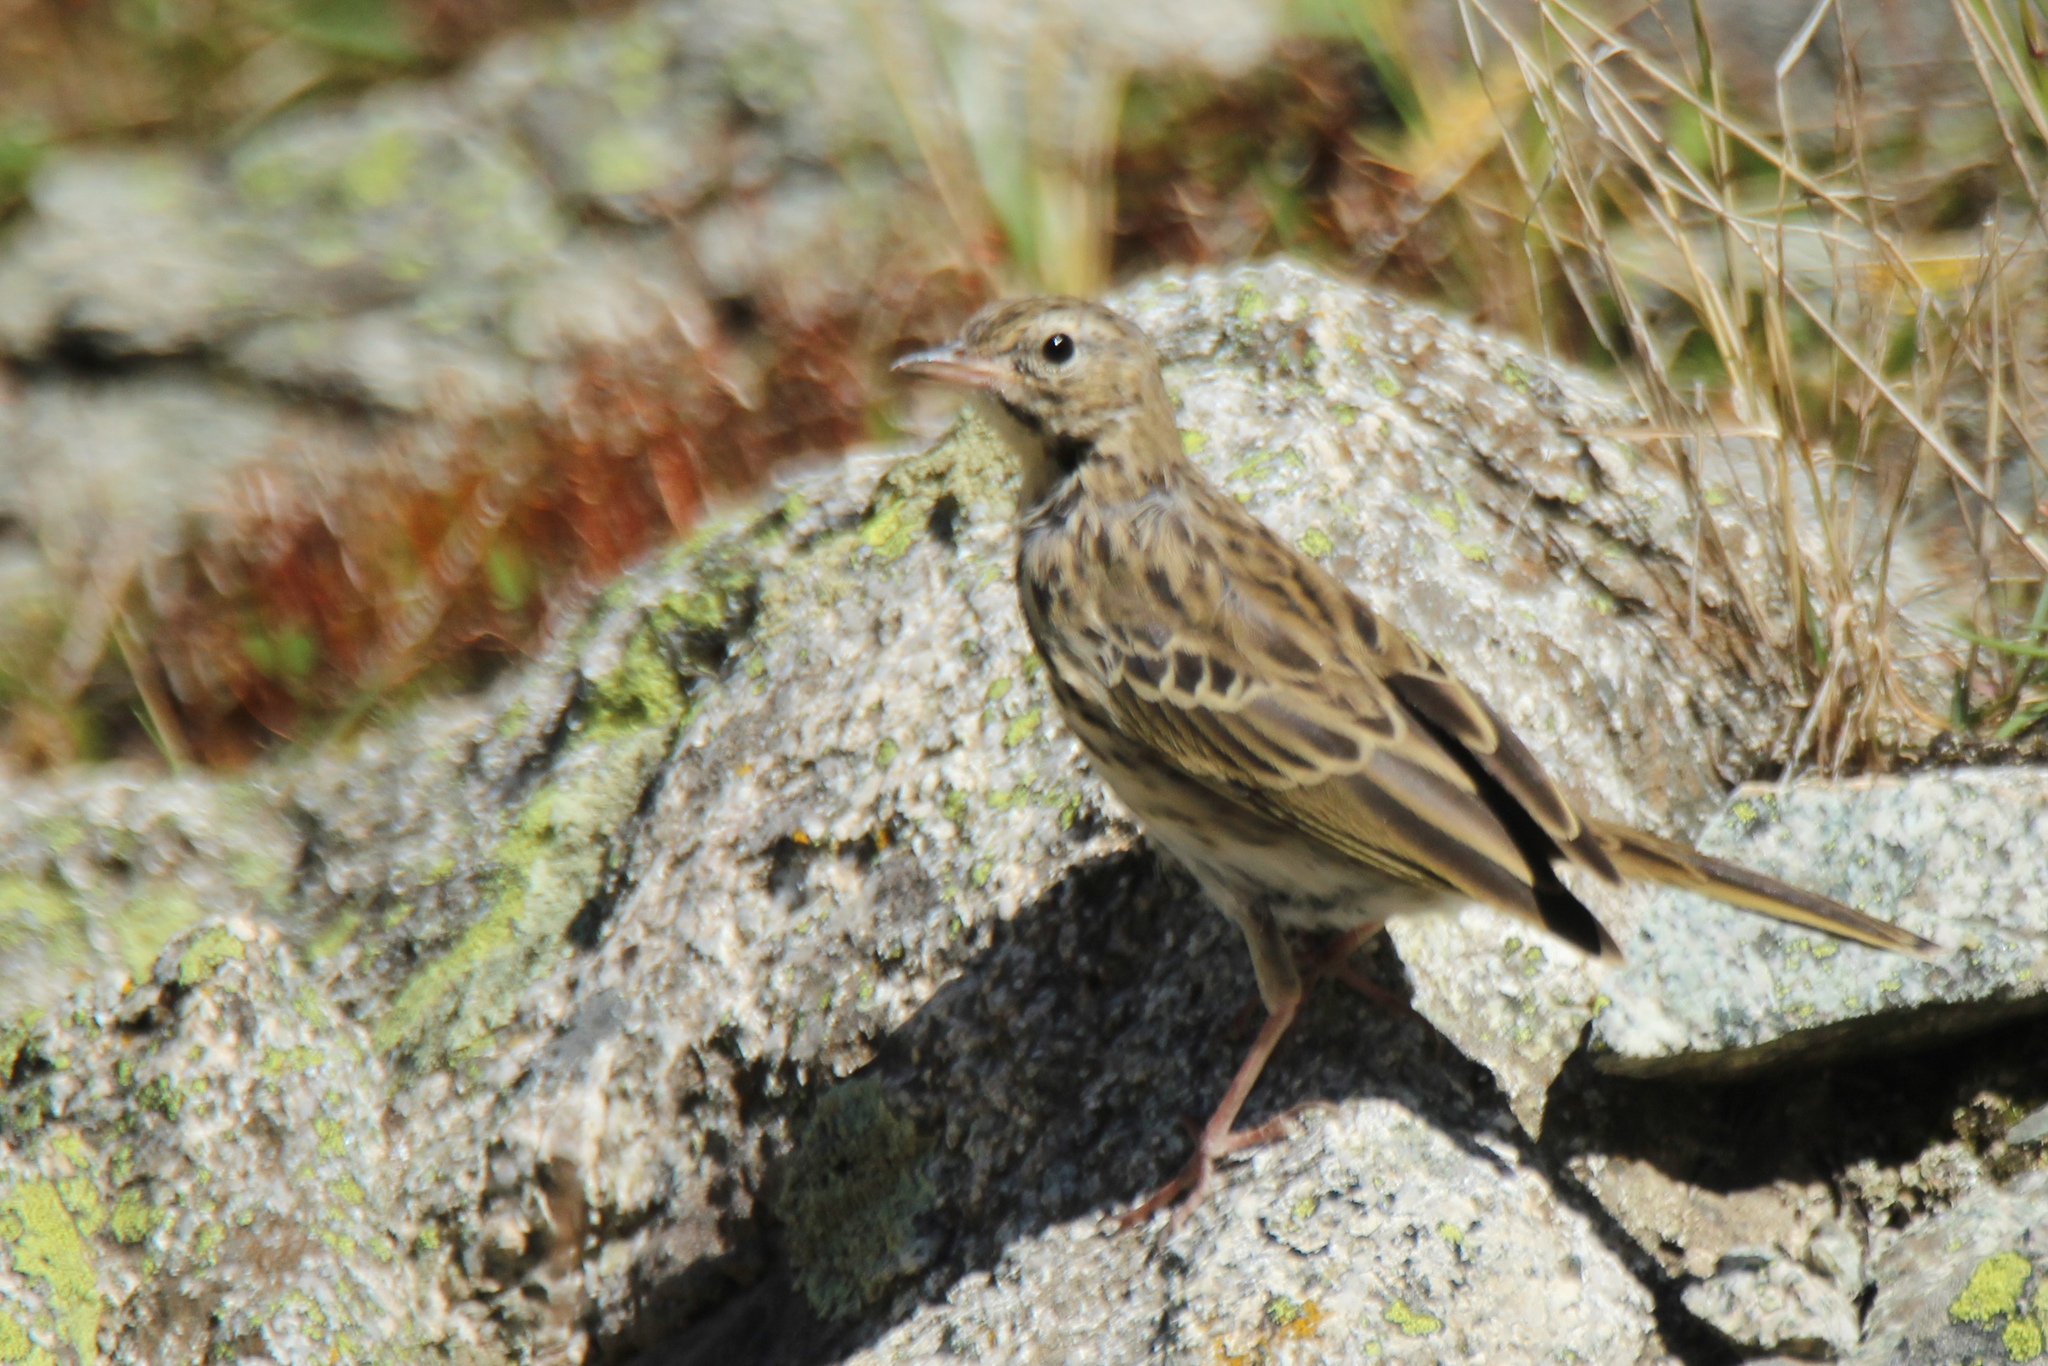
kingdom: Animalia
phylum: Chordata
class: Aves
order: Passeriformes
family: Motacillidae
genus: Anthus
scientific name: Anthus trivialis
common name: Tree pipit
